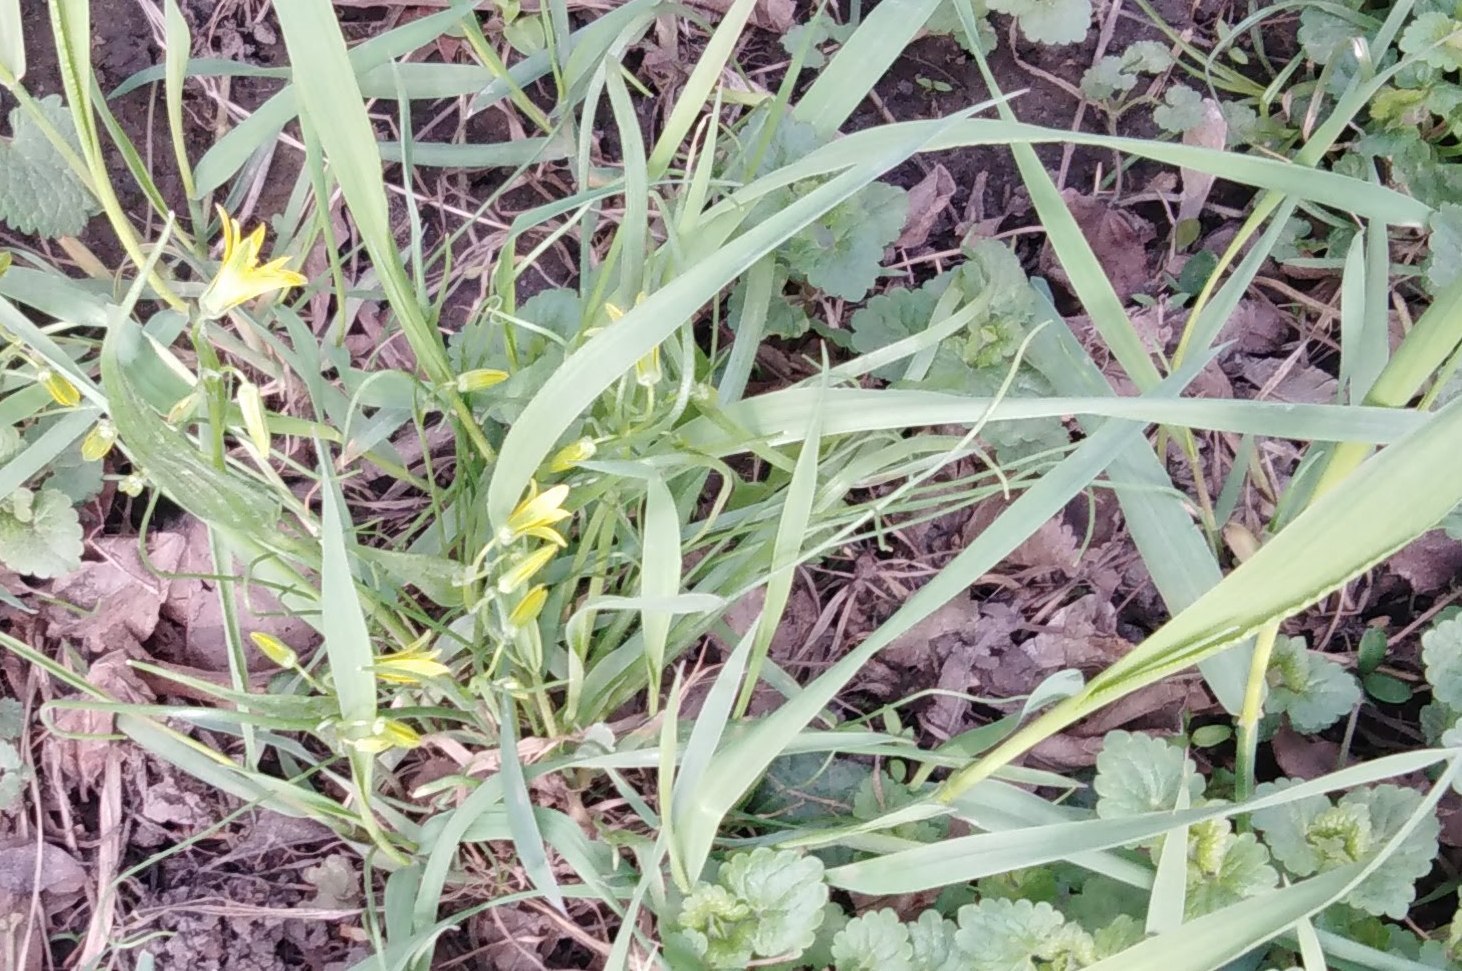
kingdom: Plantae
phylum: Tracheophyta
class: Liliopsida
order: Liliales
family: Liliaceae
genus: Gagea
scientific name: Gagea minima
